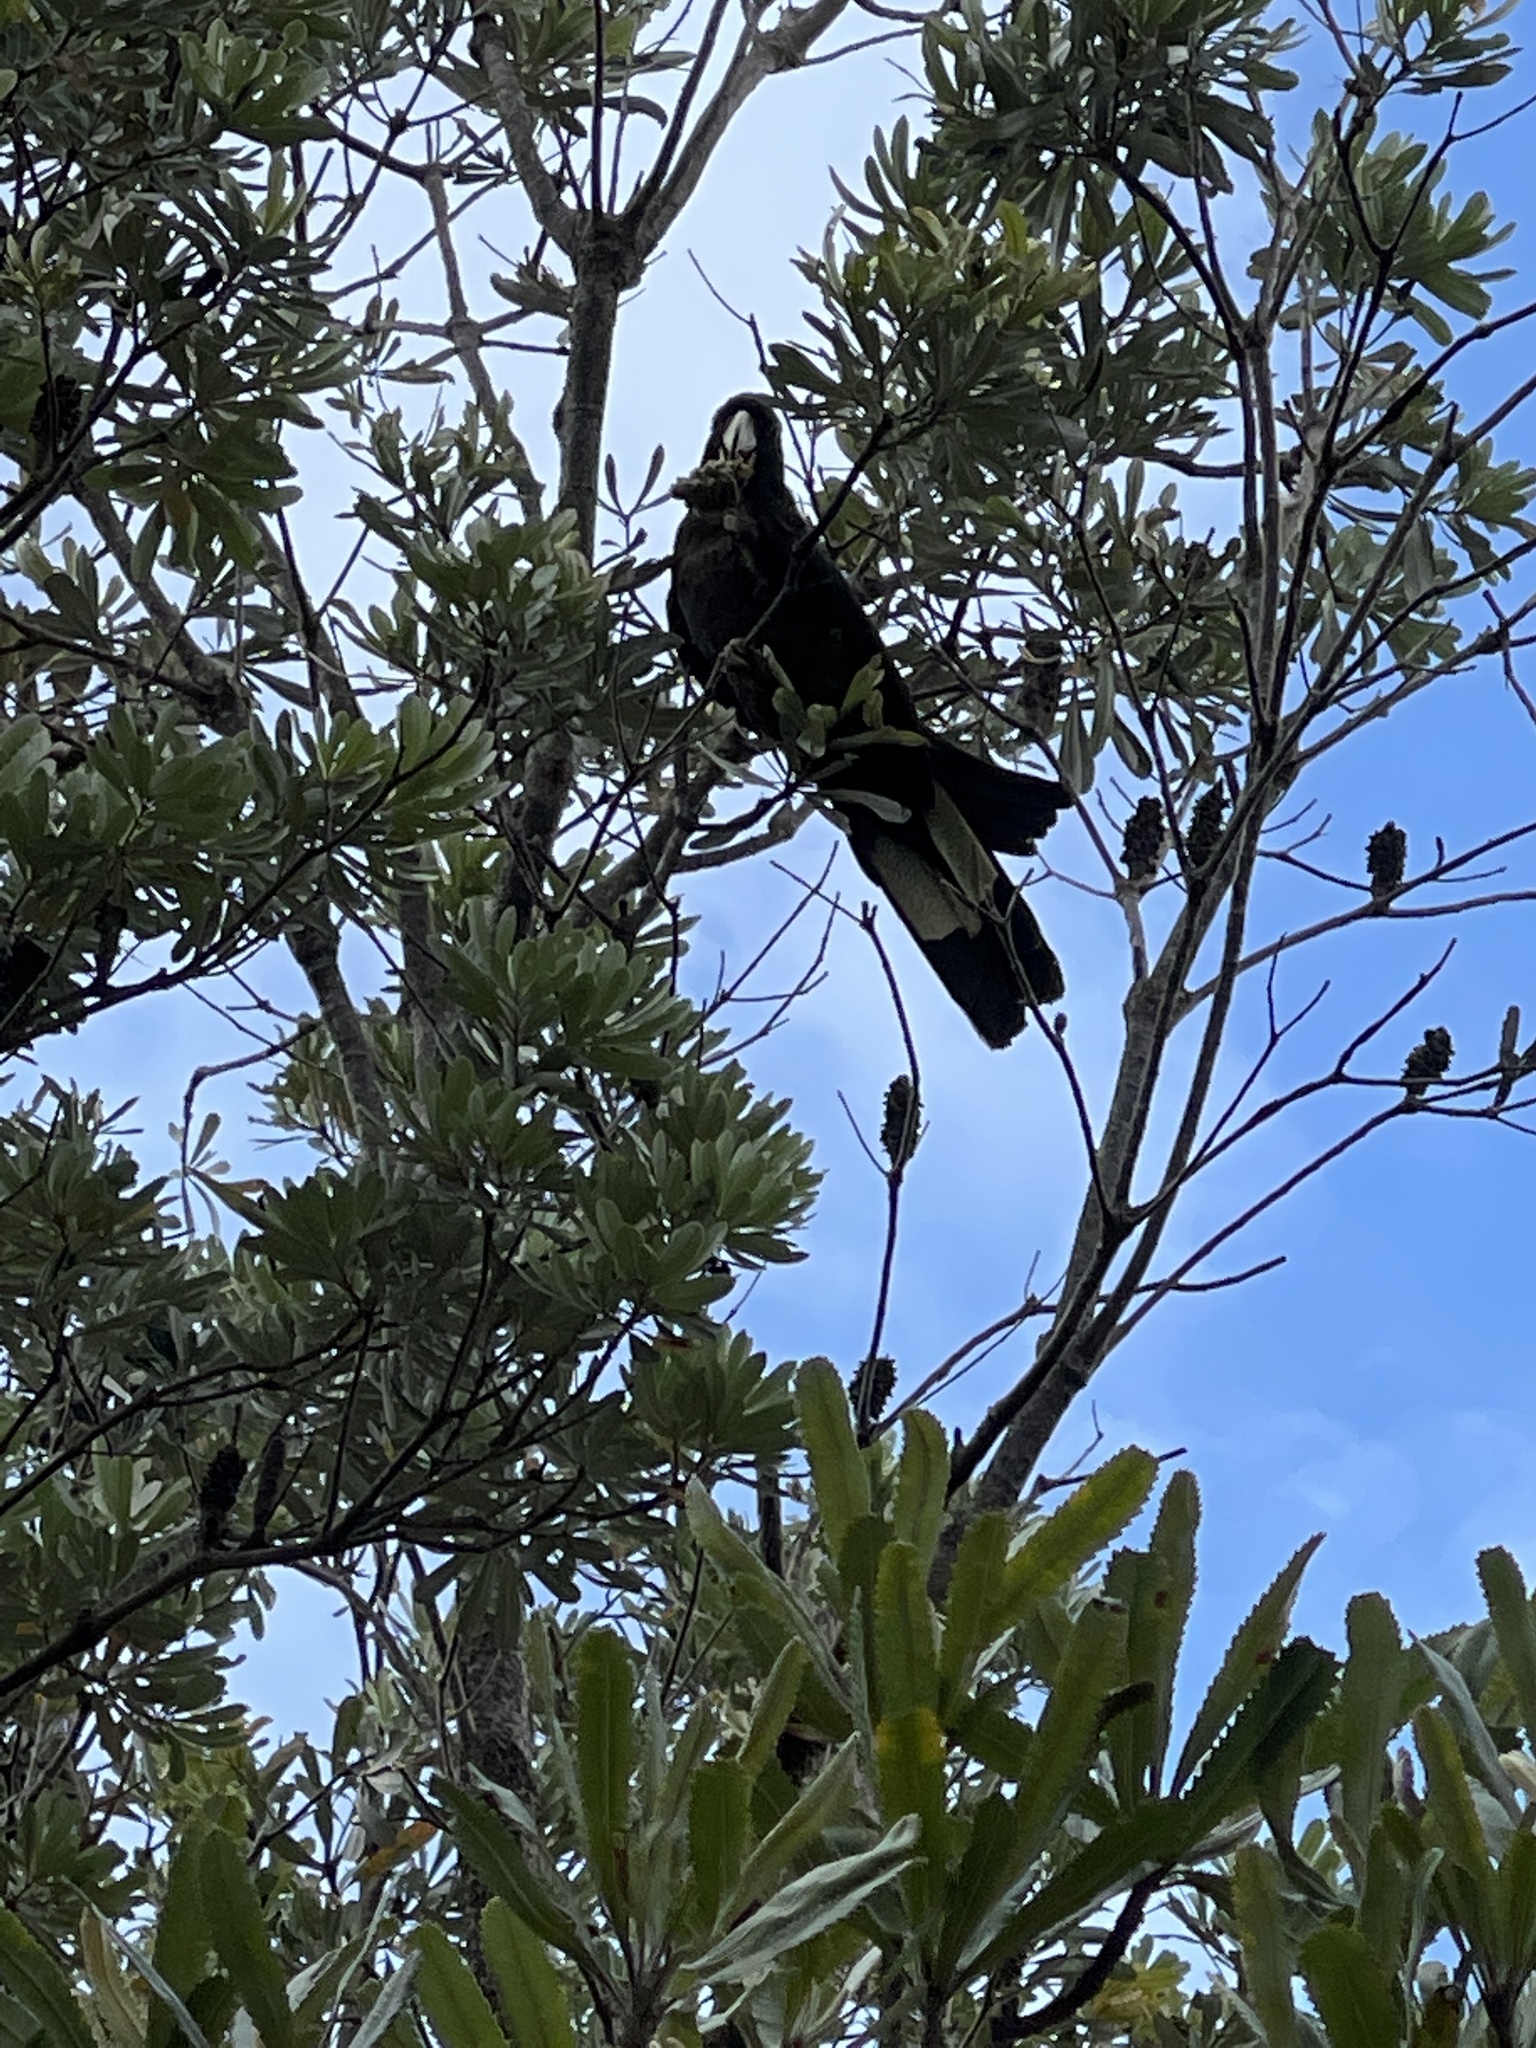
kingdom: Animalia
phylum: Chordata
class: Aves
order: Psittaciformes
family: Cacatuidae
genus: Zanda
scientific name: Zanda funerea
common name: Yellow-tailed black-cockatoo
